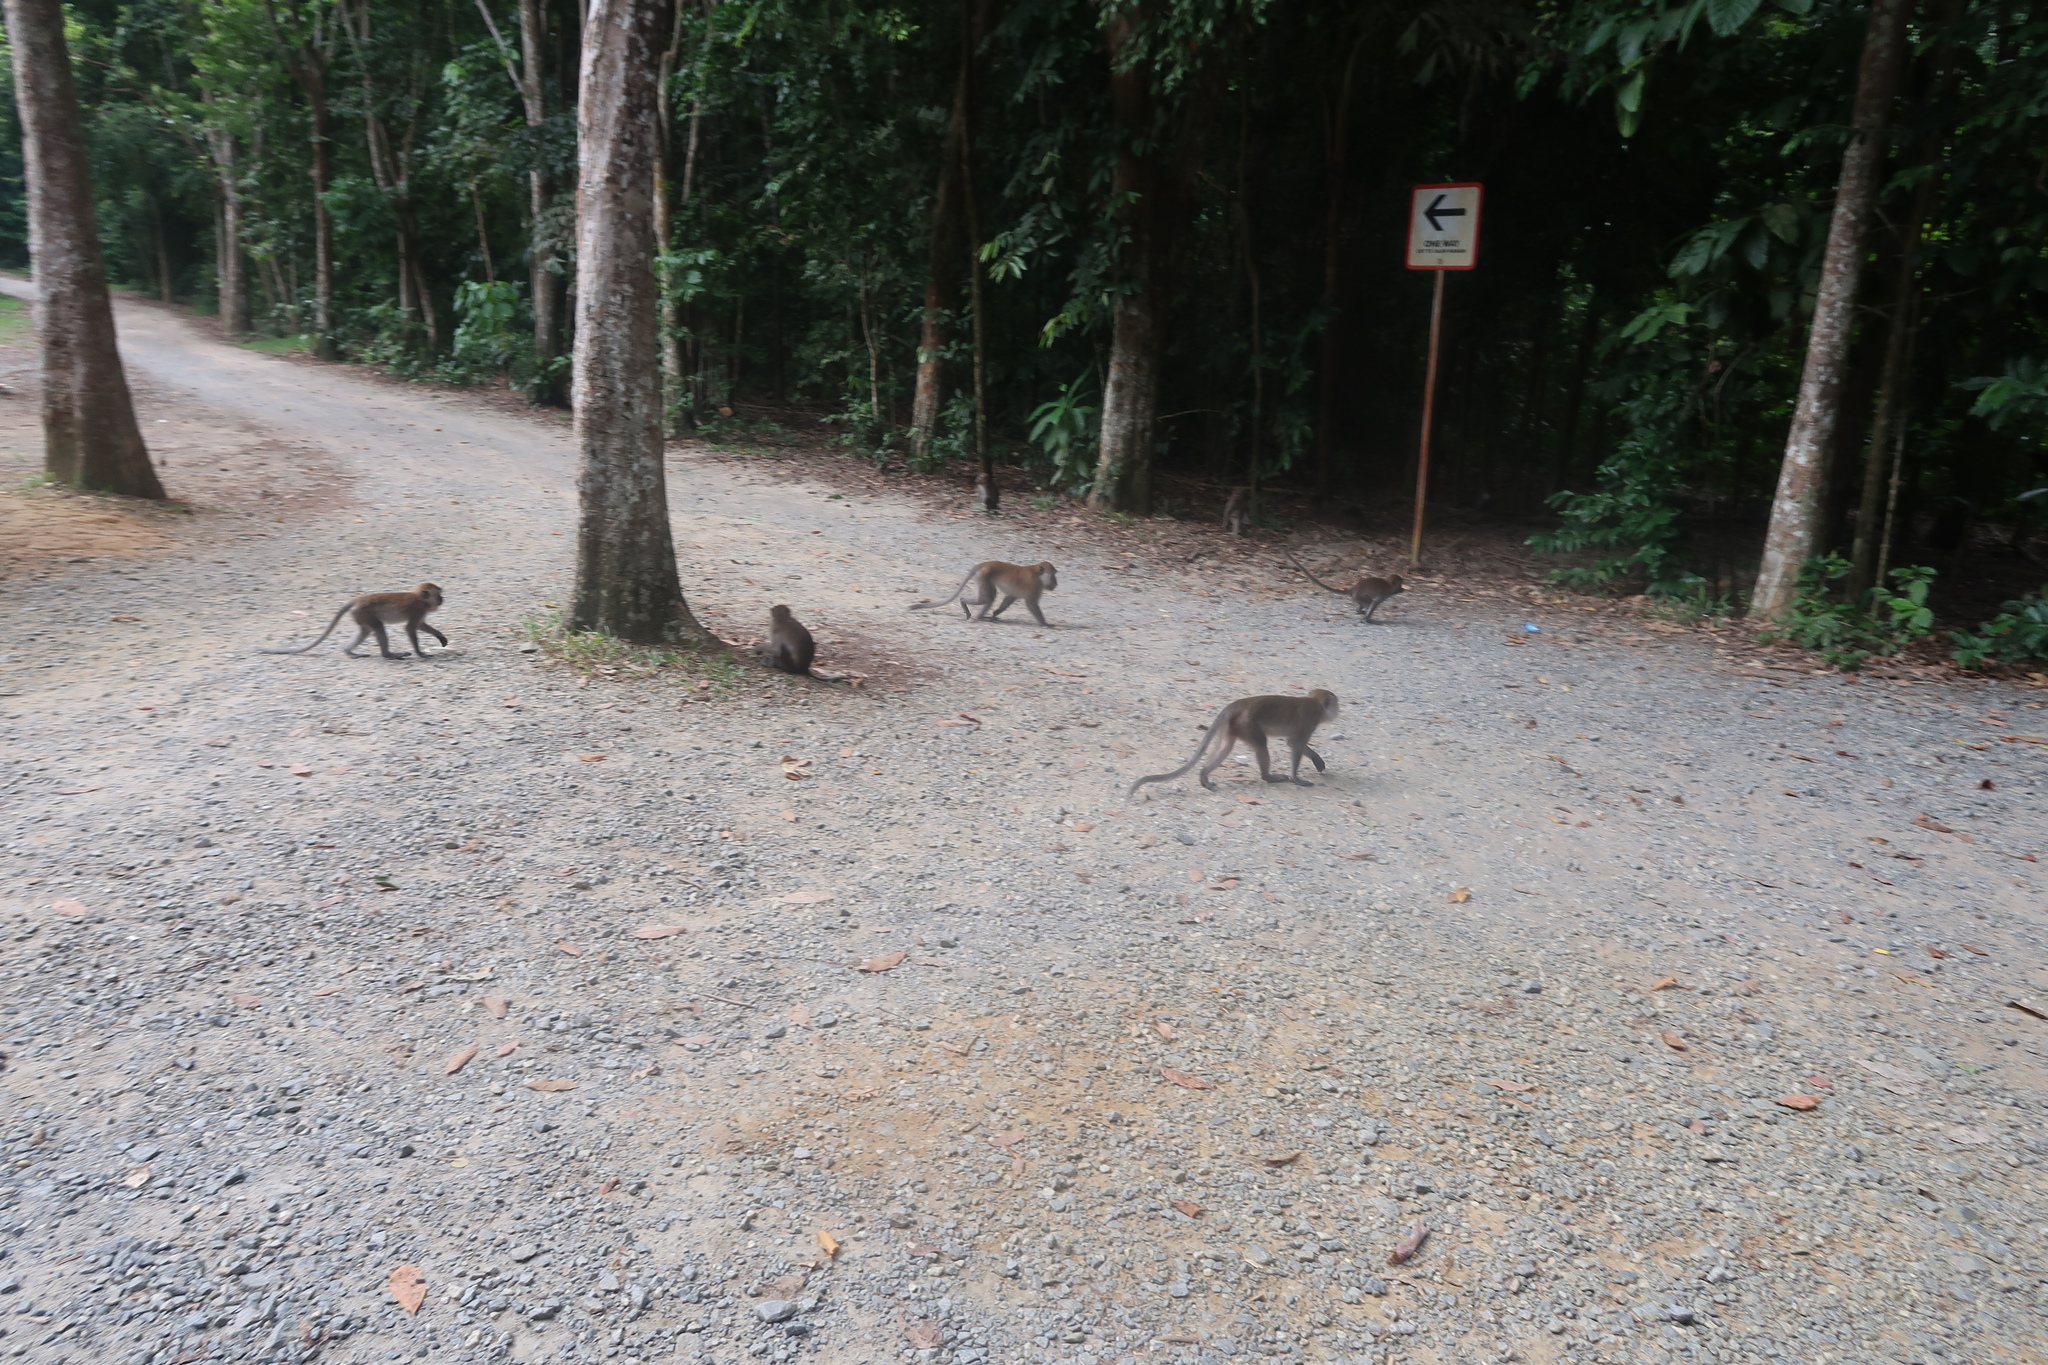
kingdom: Animalia
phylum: Chordata
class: Mammalia
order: Primates
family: Cercopithecidae
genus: Macaca
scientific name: Macaca fascicularis
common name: Crab-eating macaque
